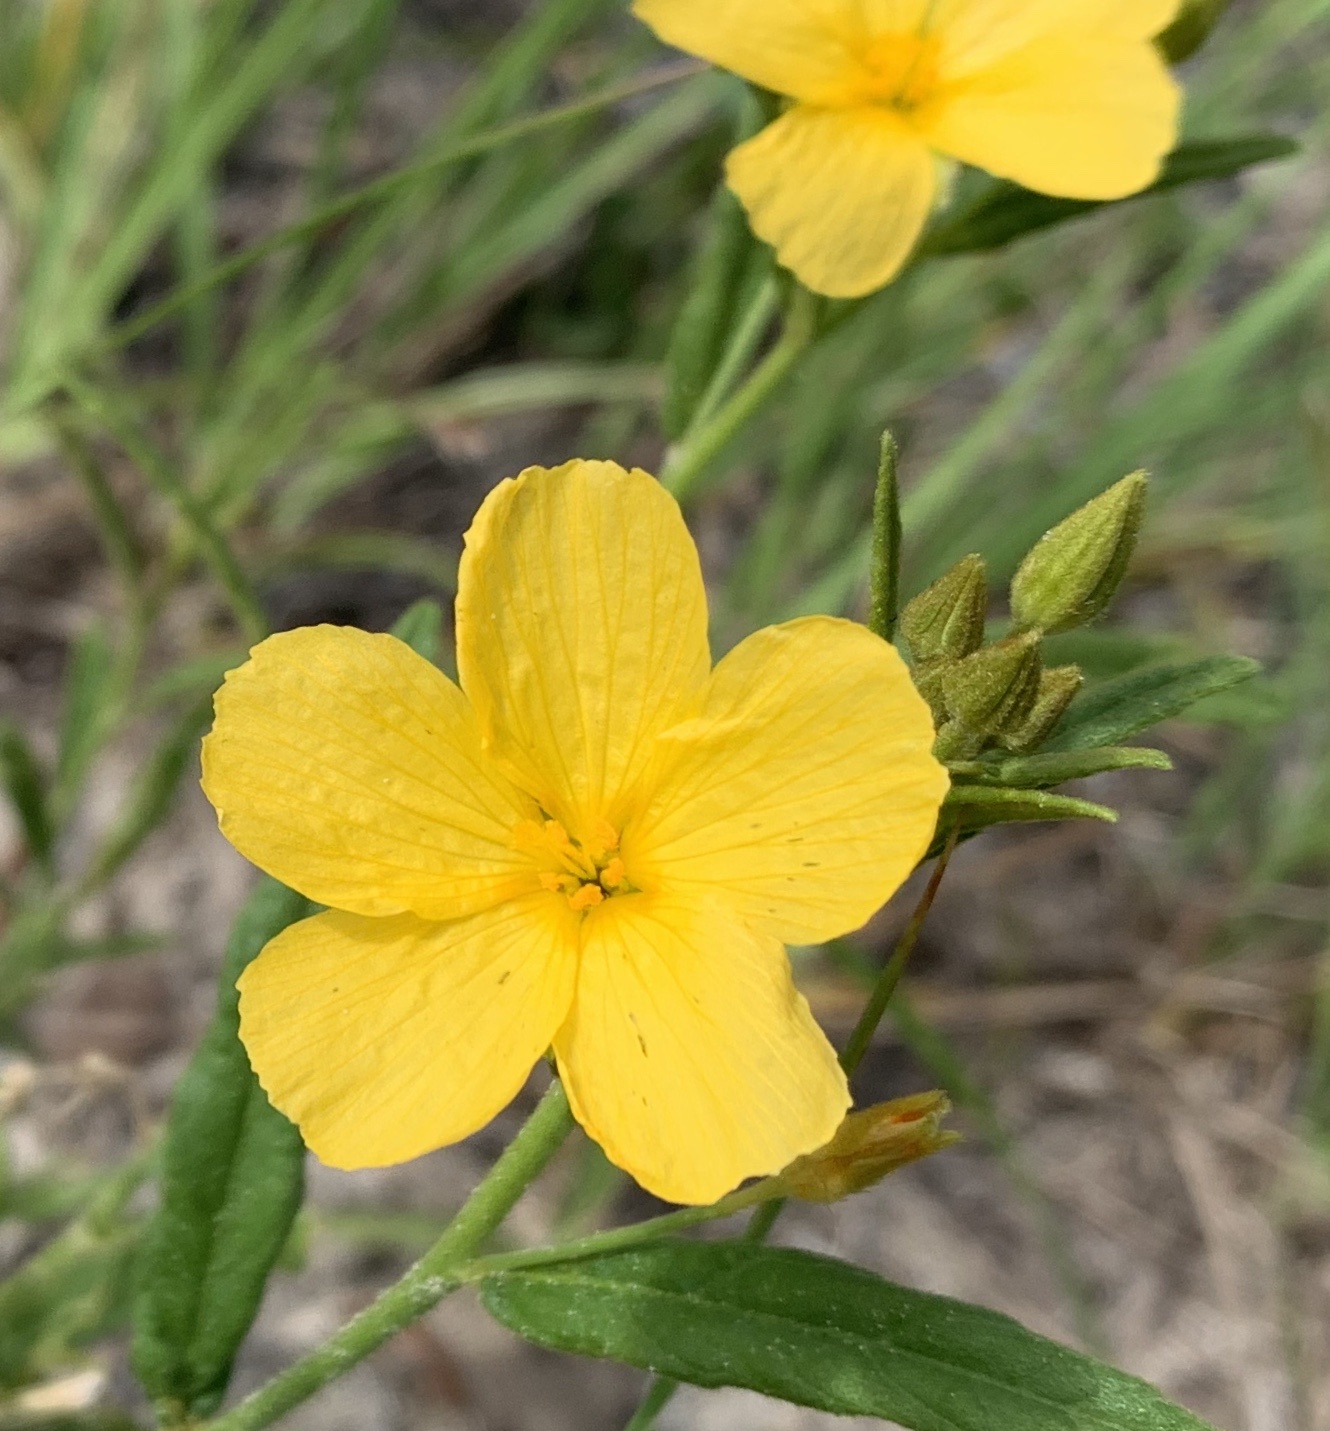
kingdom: Plantae
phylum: Tracheophyta
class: Magnoliopsida
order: Malpighiales
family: Turneraceae
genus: Piriqueta
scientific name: Piriqueta cistoides
